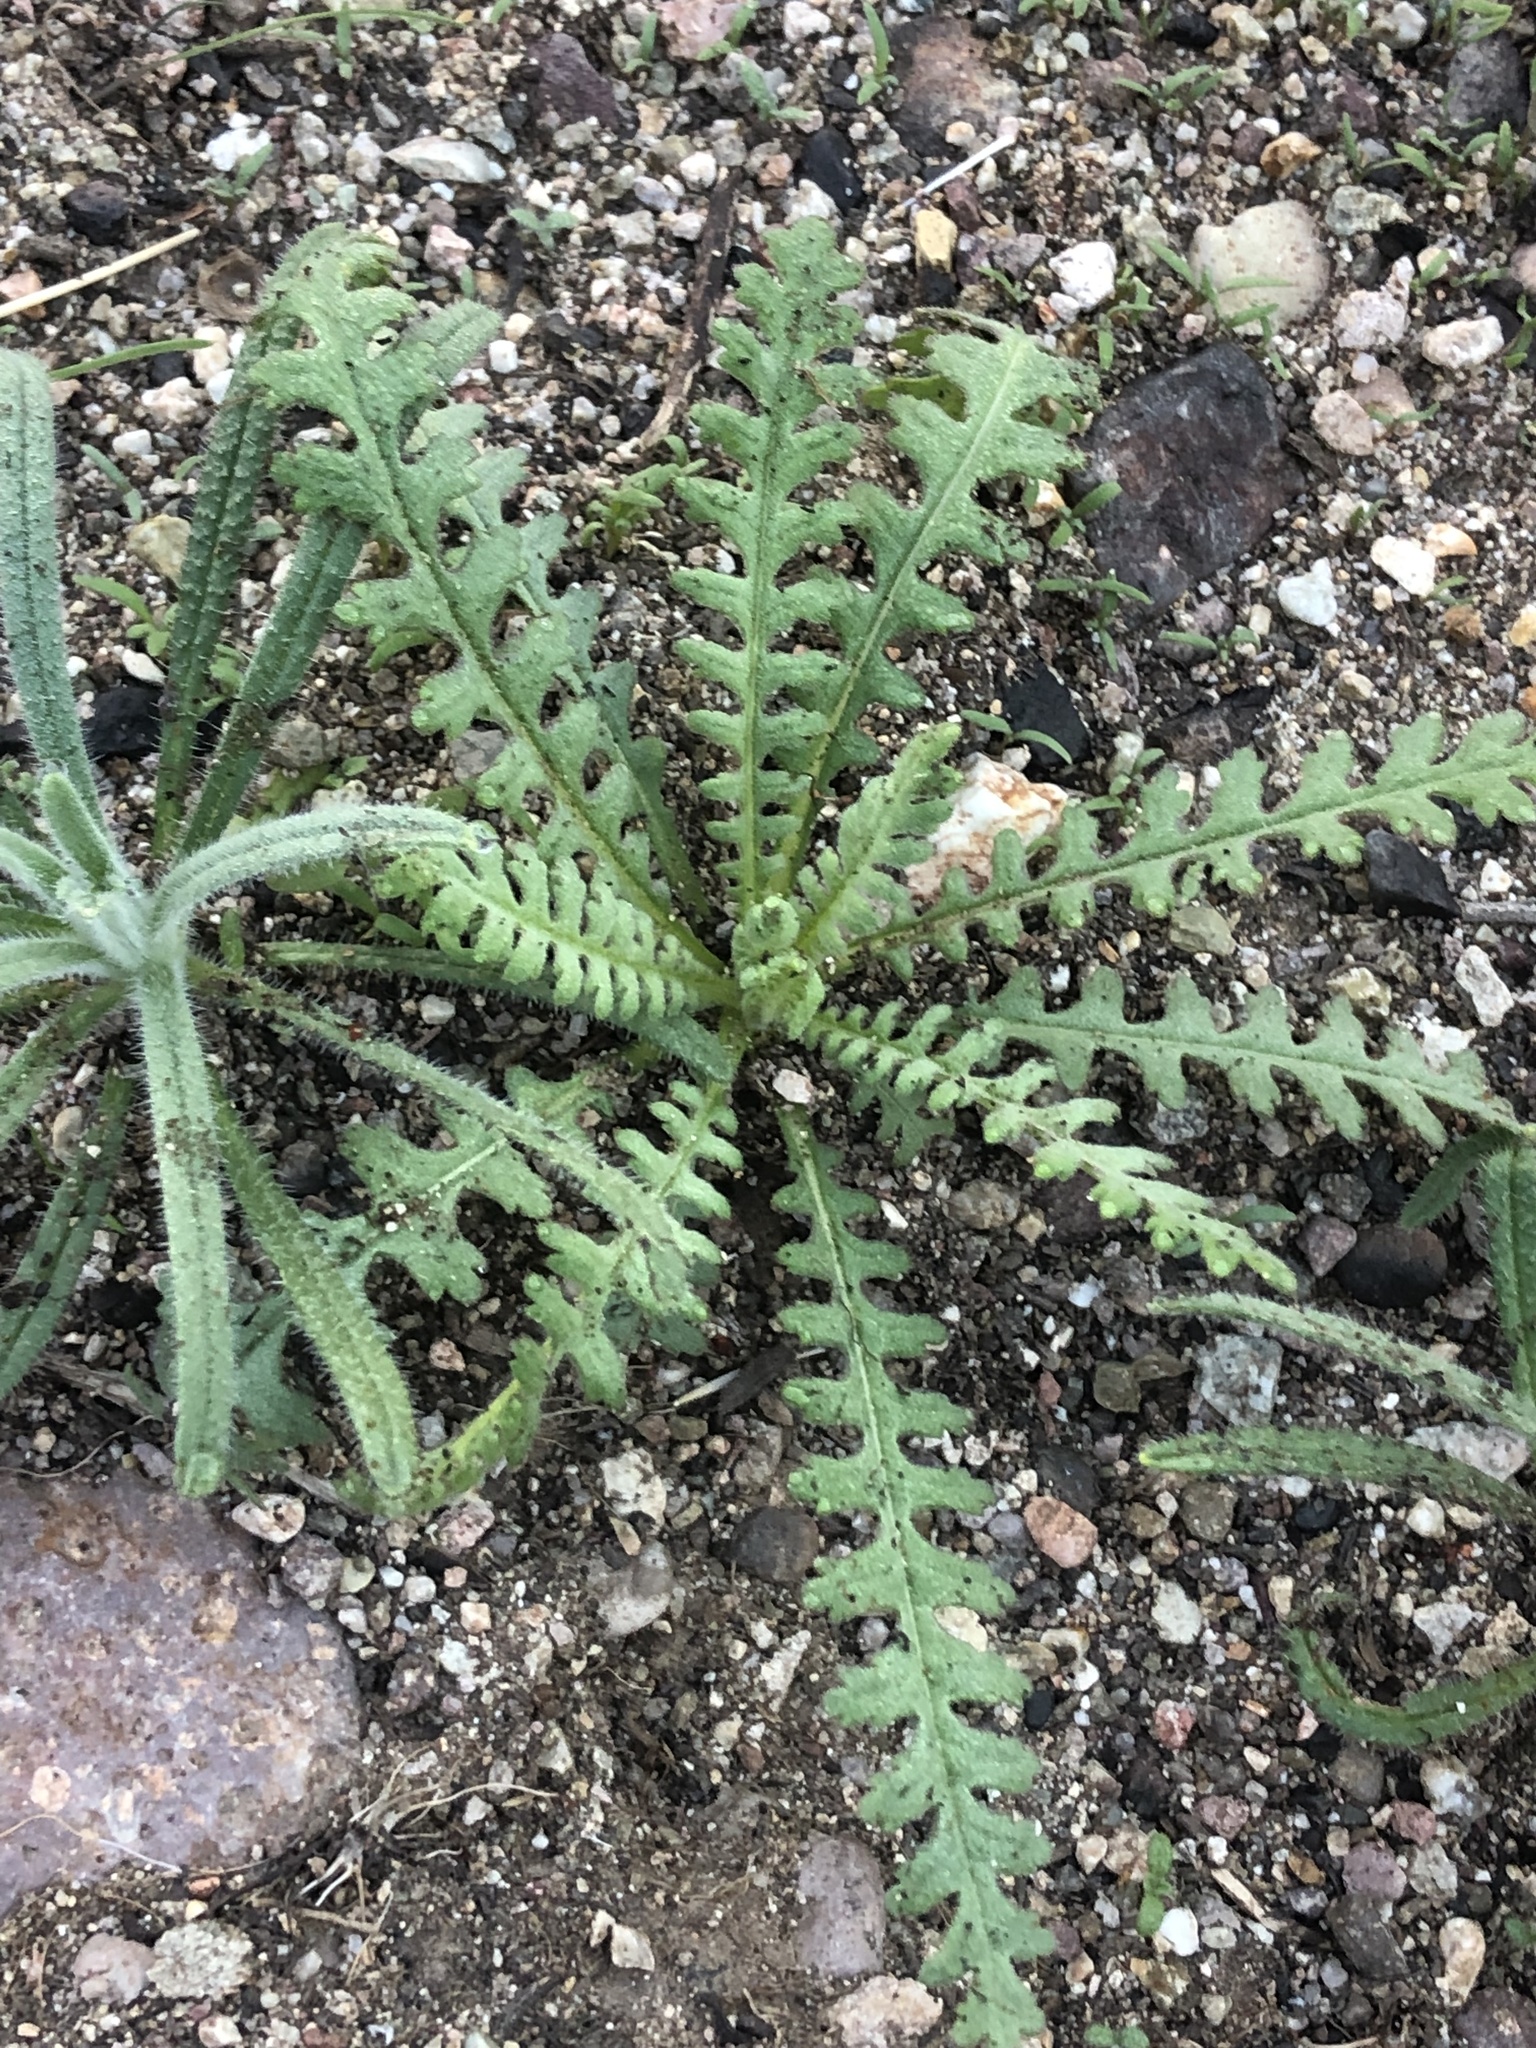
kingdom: Plantae
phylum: Tracheophyta
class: Magnoliopsida
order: Boraginales
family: Hydrophyllaceae
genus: Emmenanthe
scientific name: Emmenanthe penduliflora
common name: Whispering-bells
